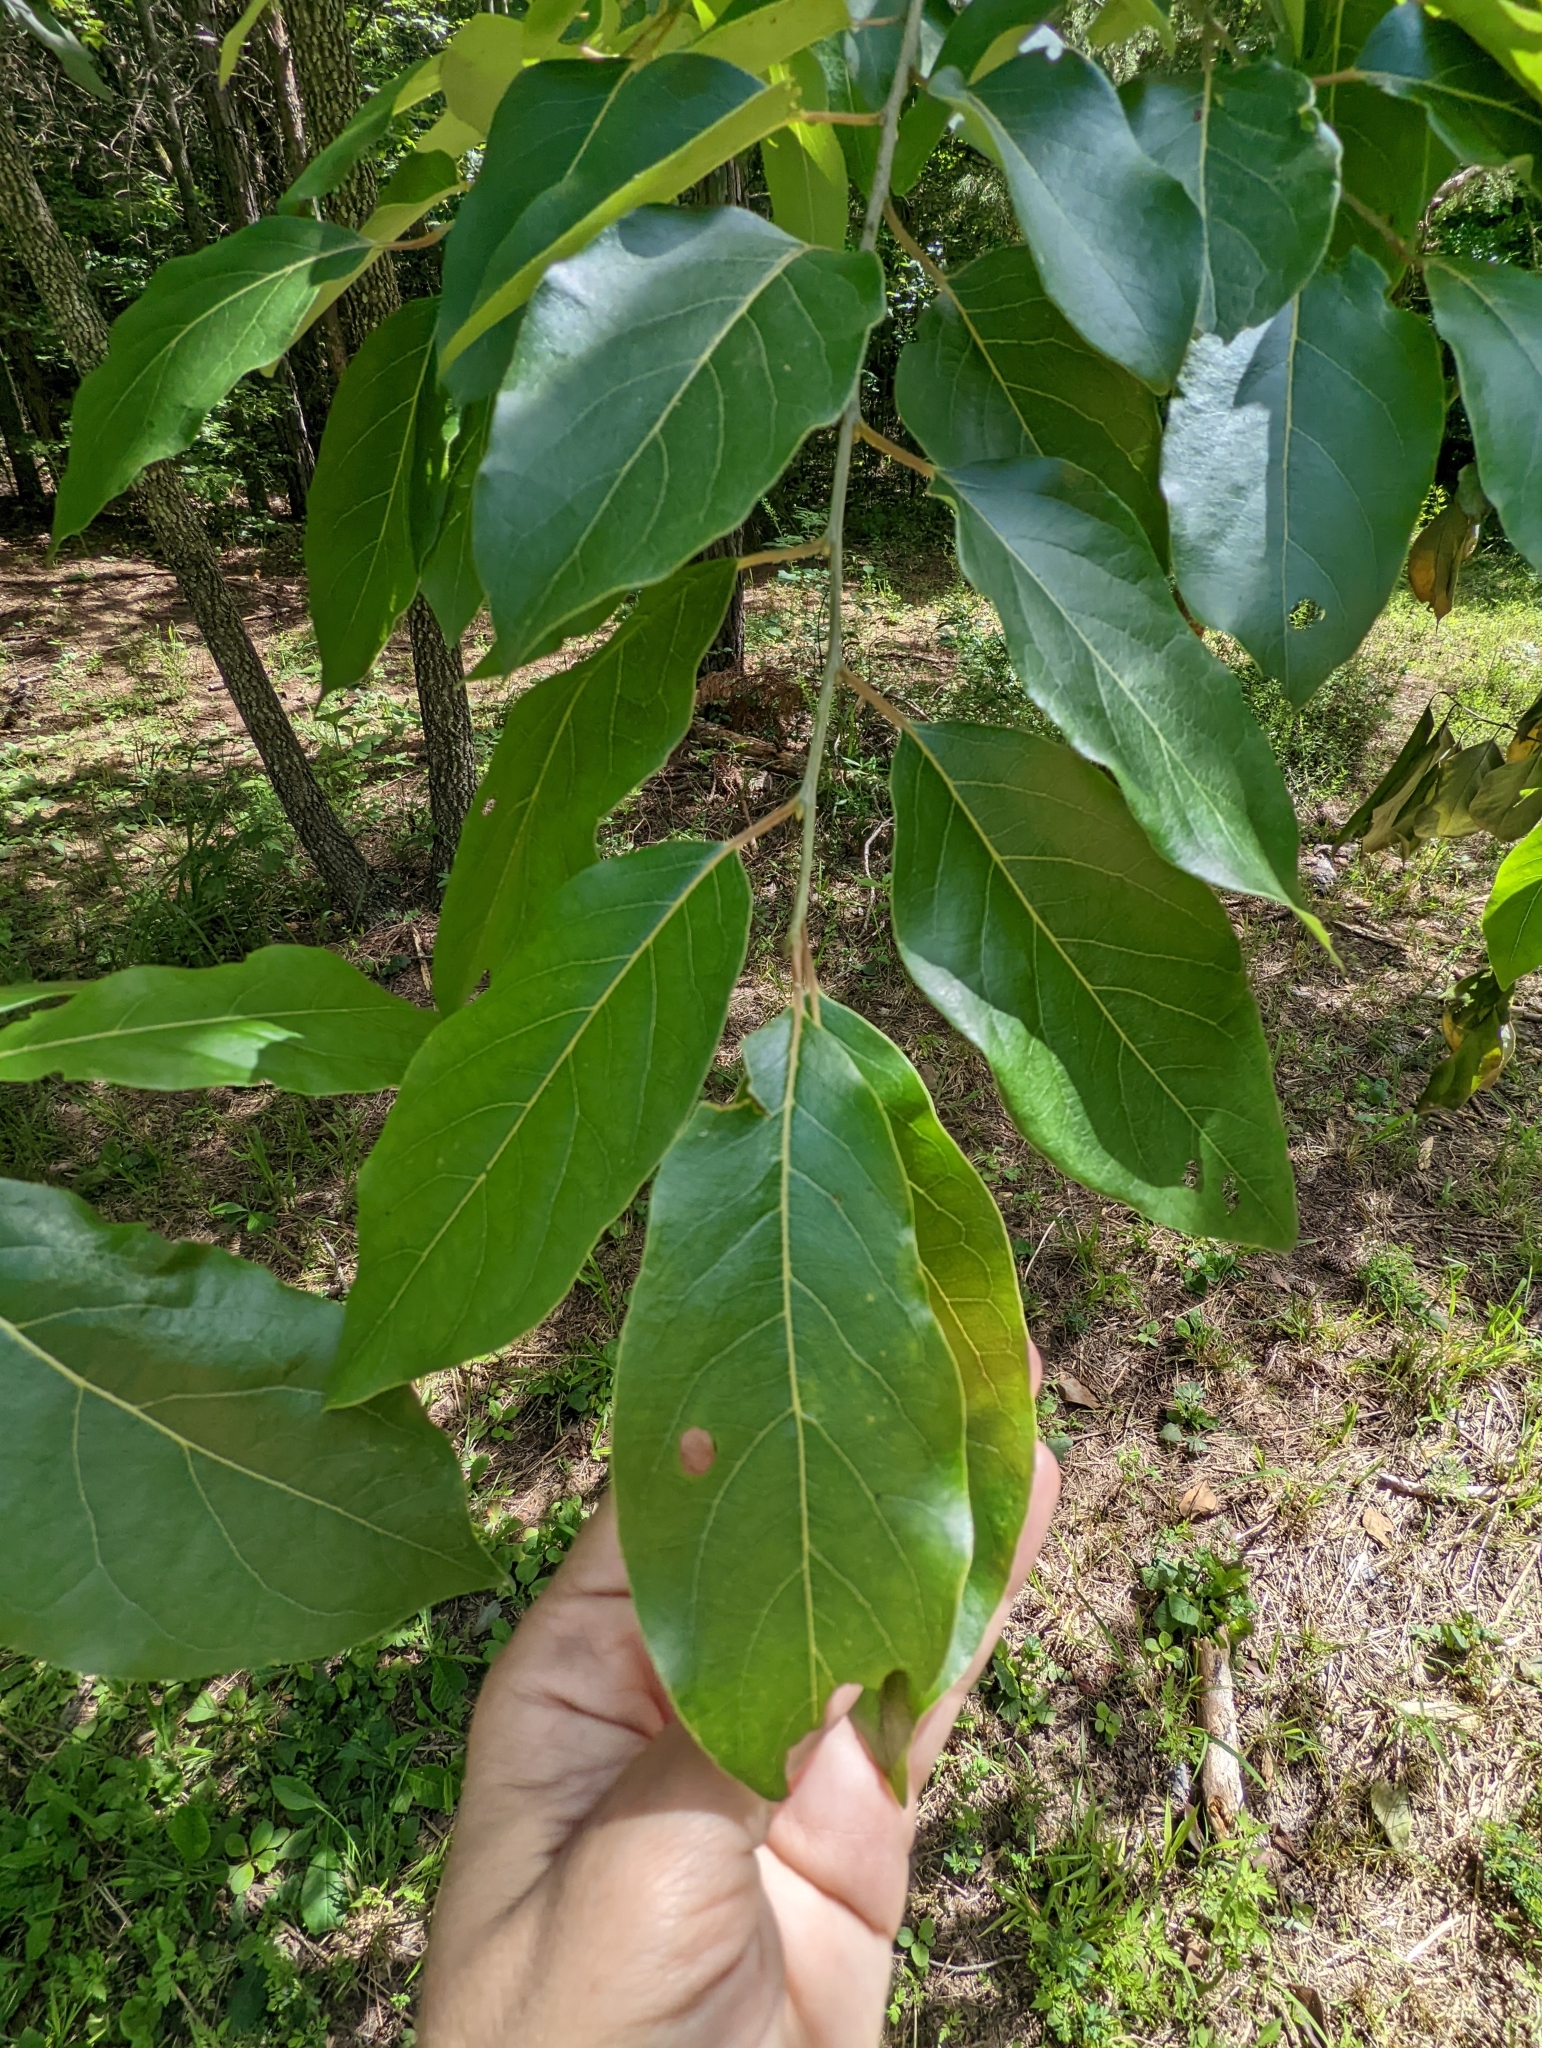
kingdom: Plantae
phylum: Tracheophyta
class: Magnoliopsida
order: Ericales
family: Ebenaceae
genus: Diospyros
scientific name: Diospyros virginiana
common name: Persimmon
